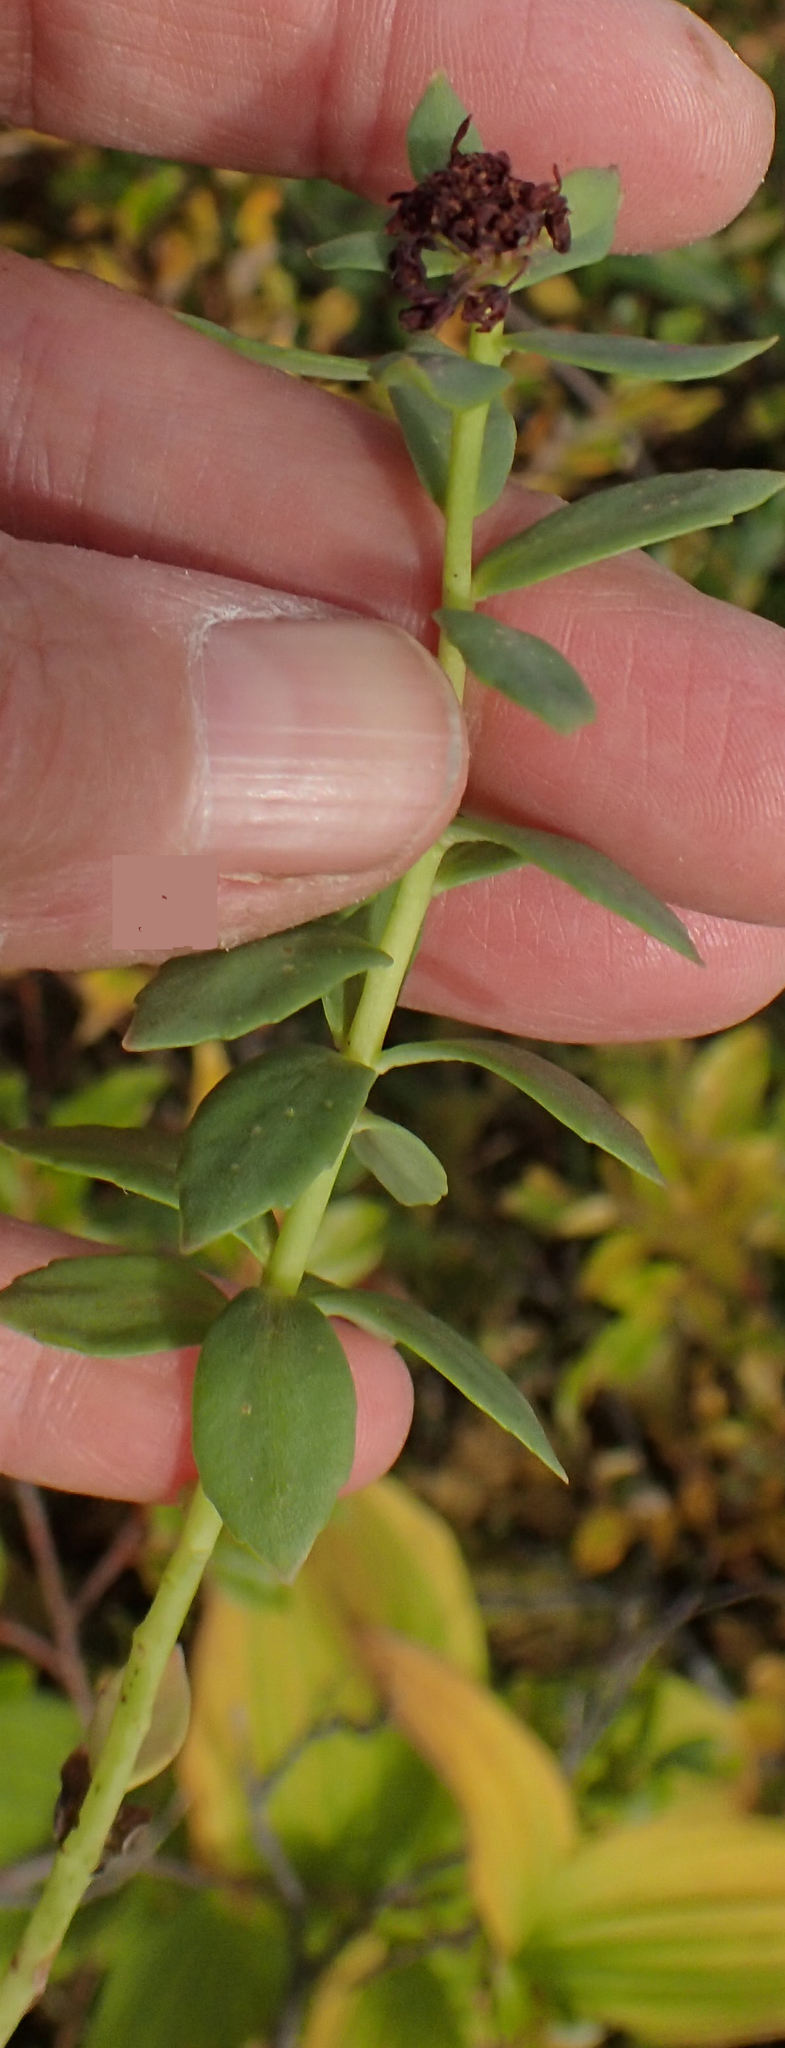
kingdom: Plantae
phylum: Tracheophyta
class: Magnoliopsida
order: Saxifragales
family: Crassulaceae
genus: Rhodiola
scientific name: Rhodiola integrifolia
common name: Western roseroot
